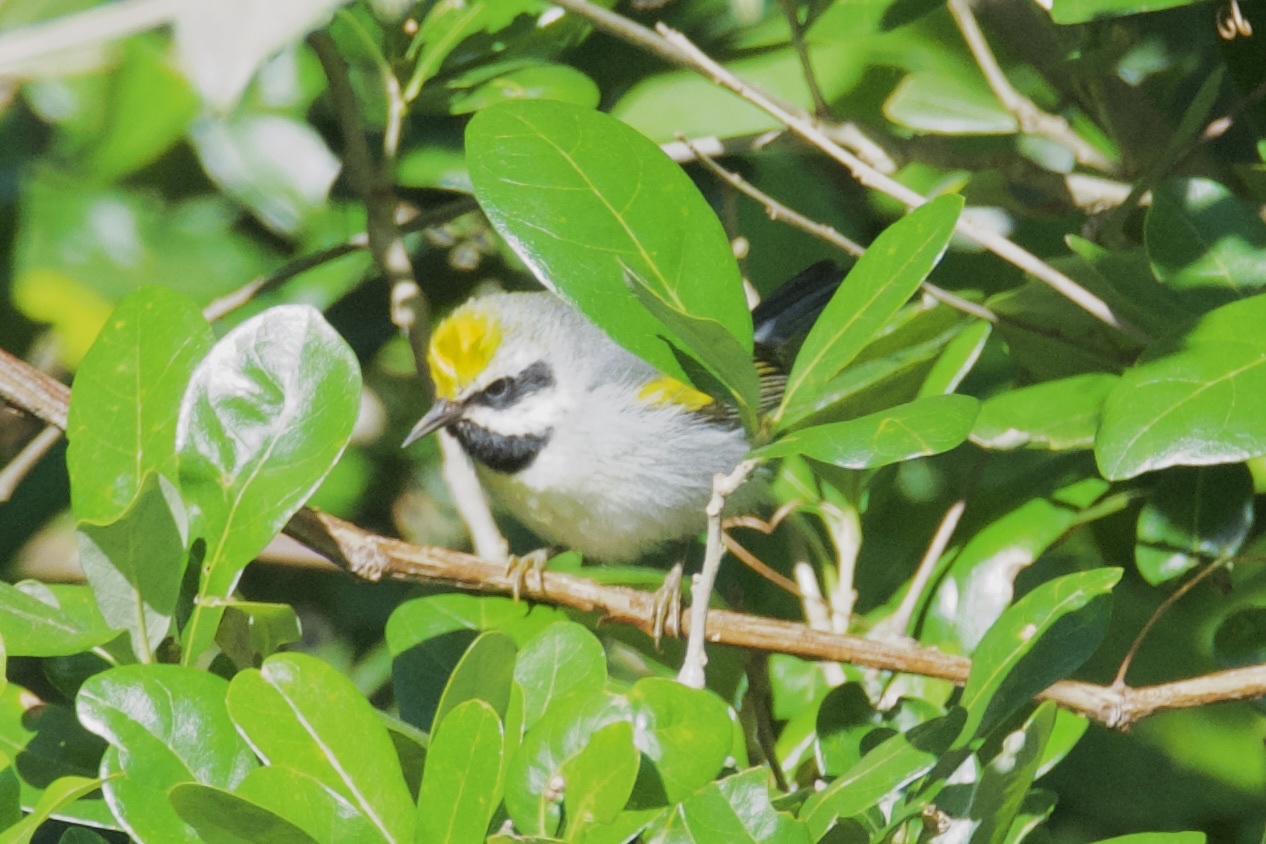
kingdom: Animalia
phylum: Chordata
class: Aves
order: Passeriformes
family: Parulidae
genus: Vermivora
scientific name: Vermivora chrysoptera
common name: Golden-winged warbler
